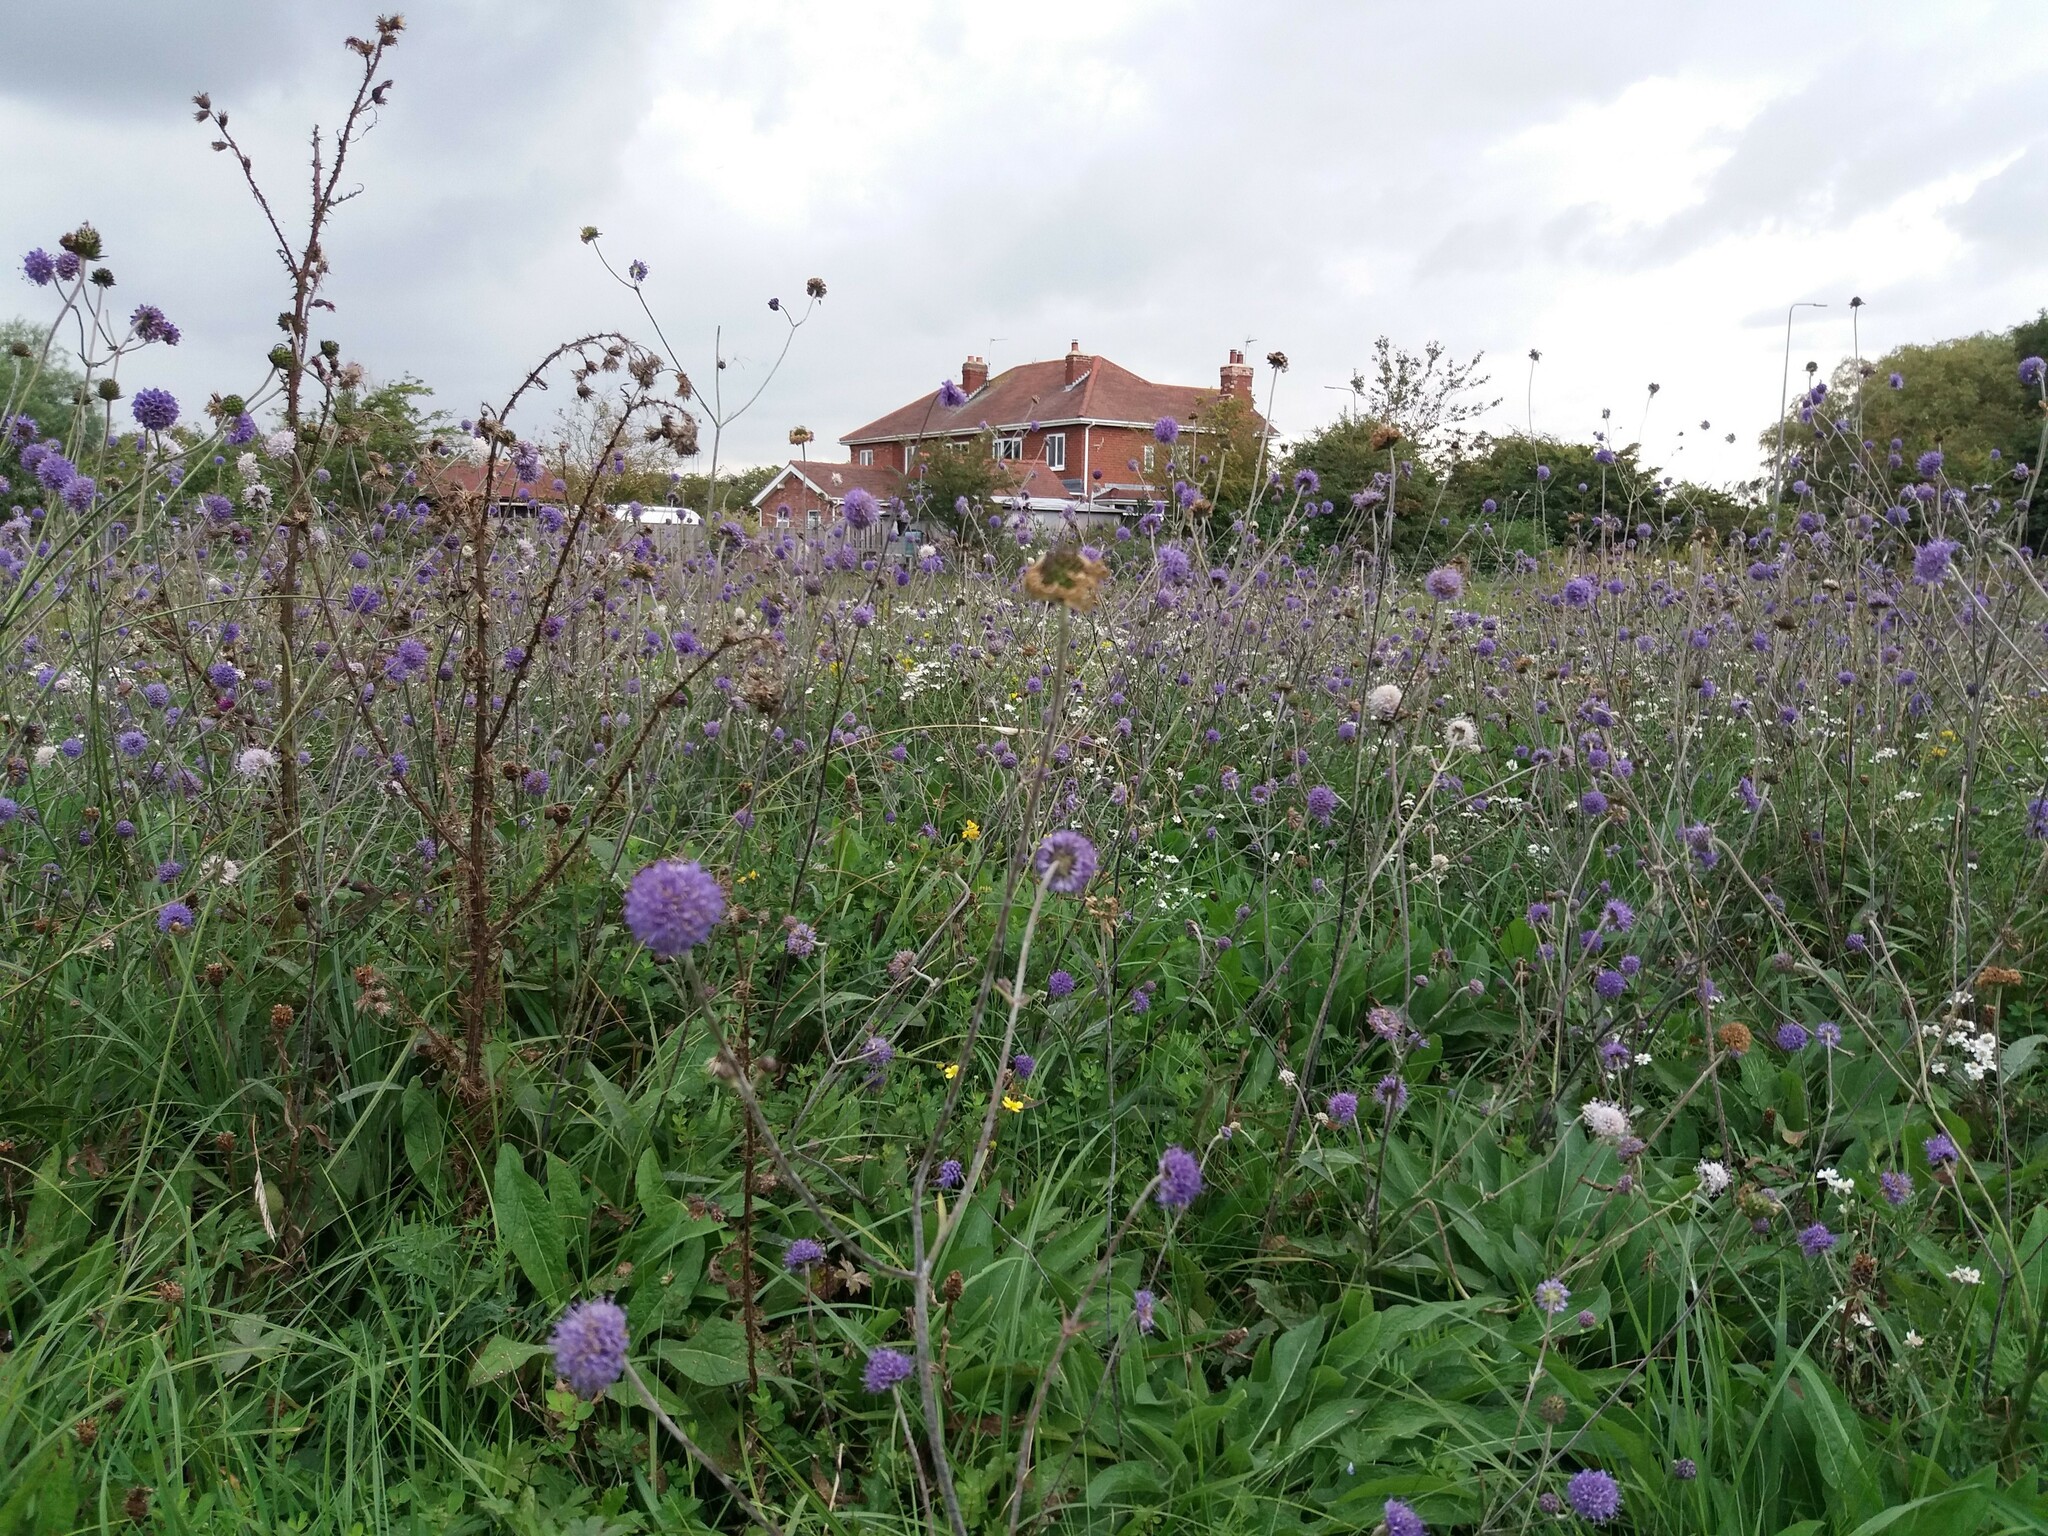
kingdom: Plantae
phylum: Tracheophyta
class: Magnoliopsida
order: Dipsacales
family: Caprifoliaceae
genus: Succisa
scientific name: Succisa pratensis
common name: Devil's-bit
